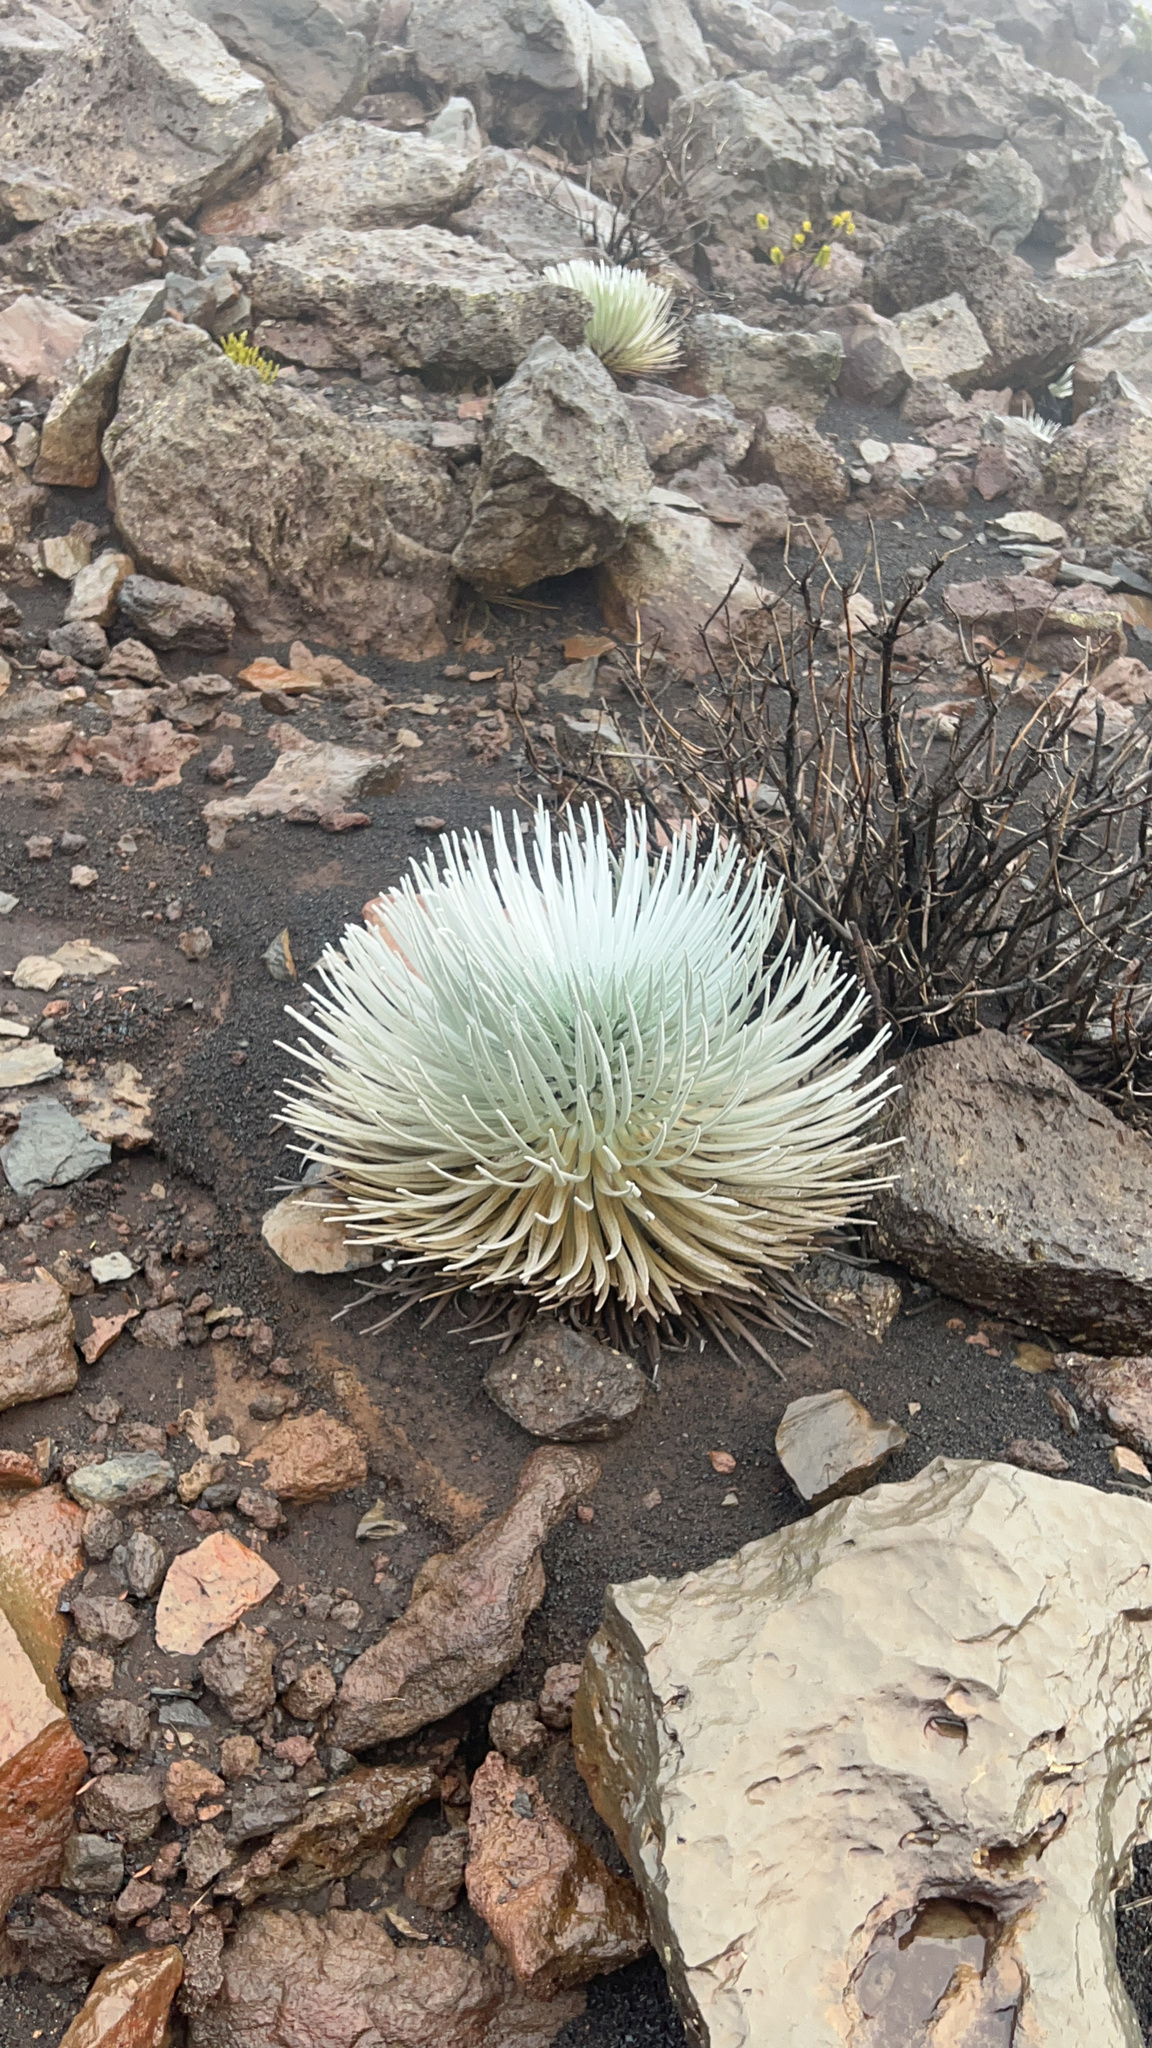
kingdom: Plantae
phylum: Tracheophyta
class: Magnoliopsida
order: Asterales
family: Asteraceae
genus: Argyroxiphium
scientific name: Argyroxiphium sandwicense
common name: Silversword
